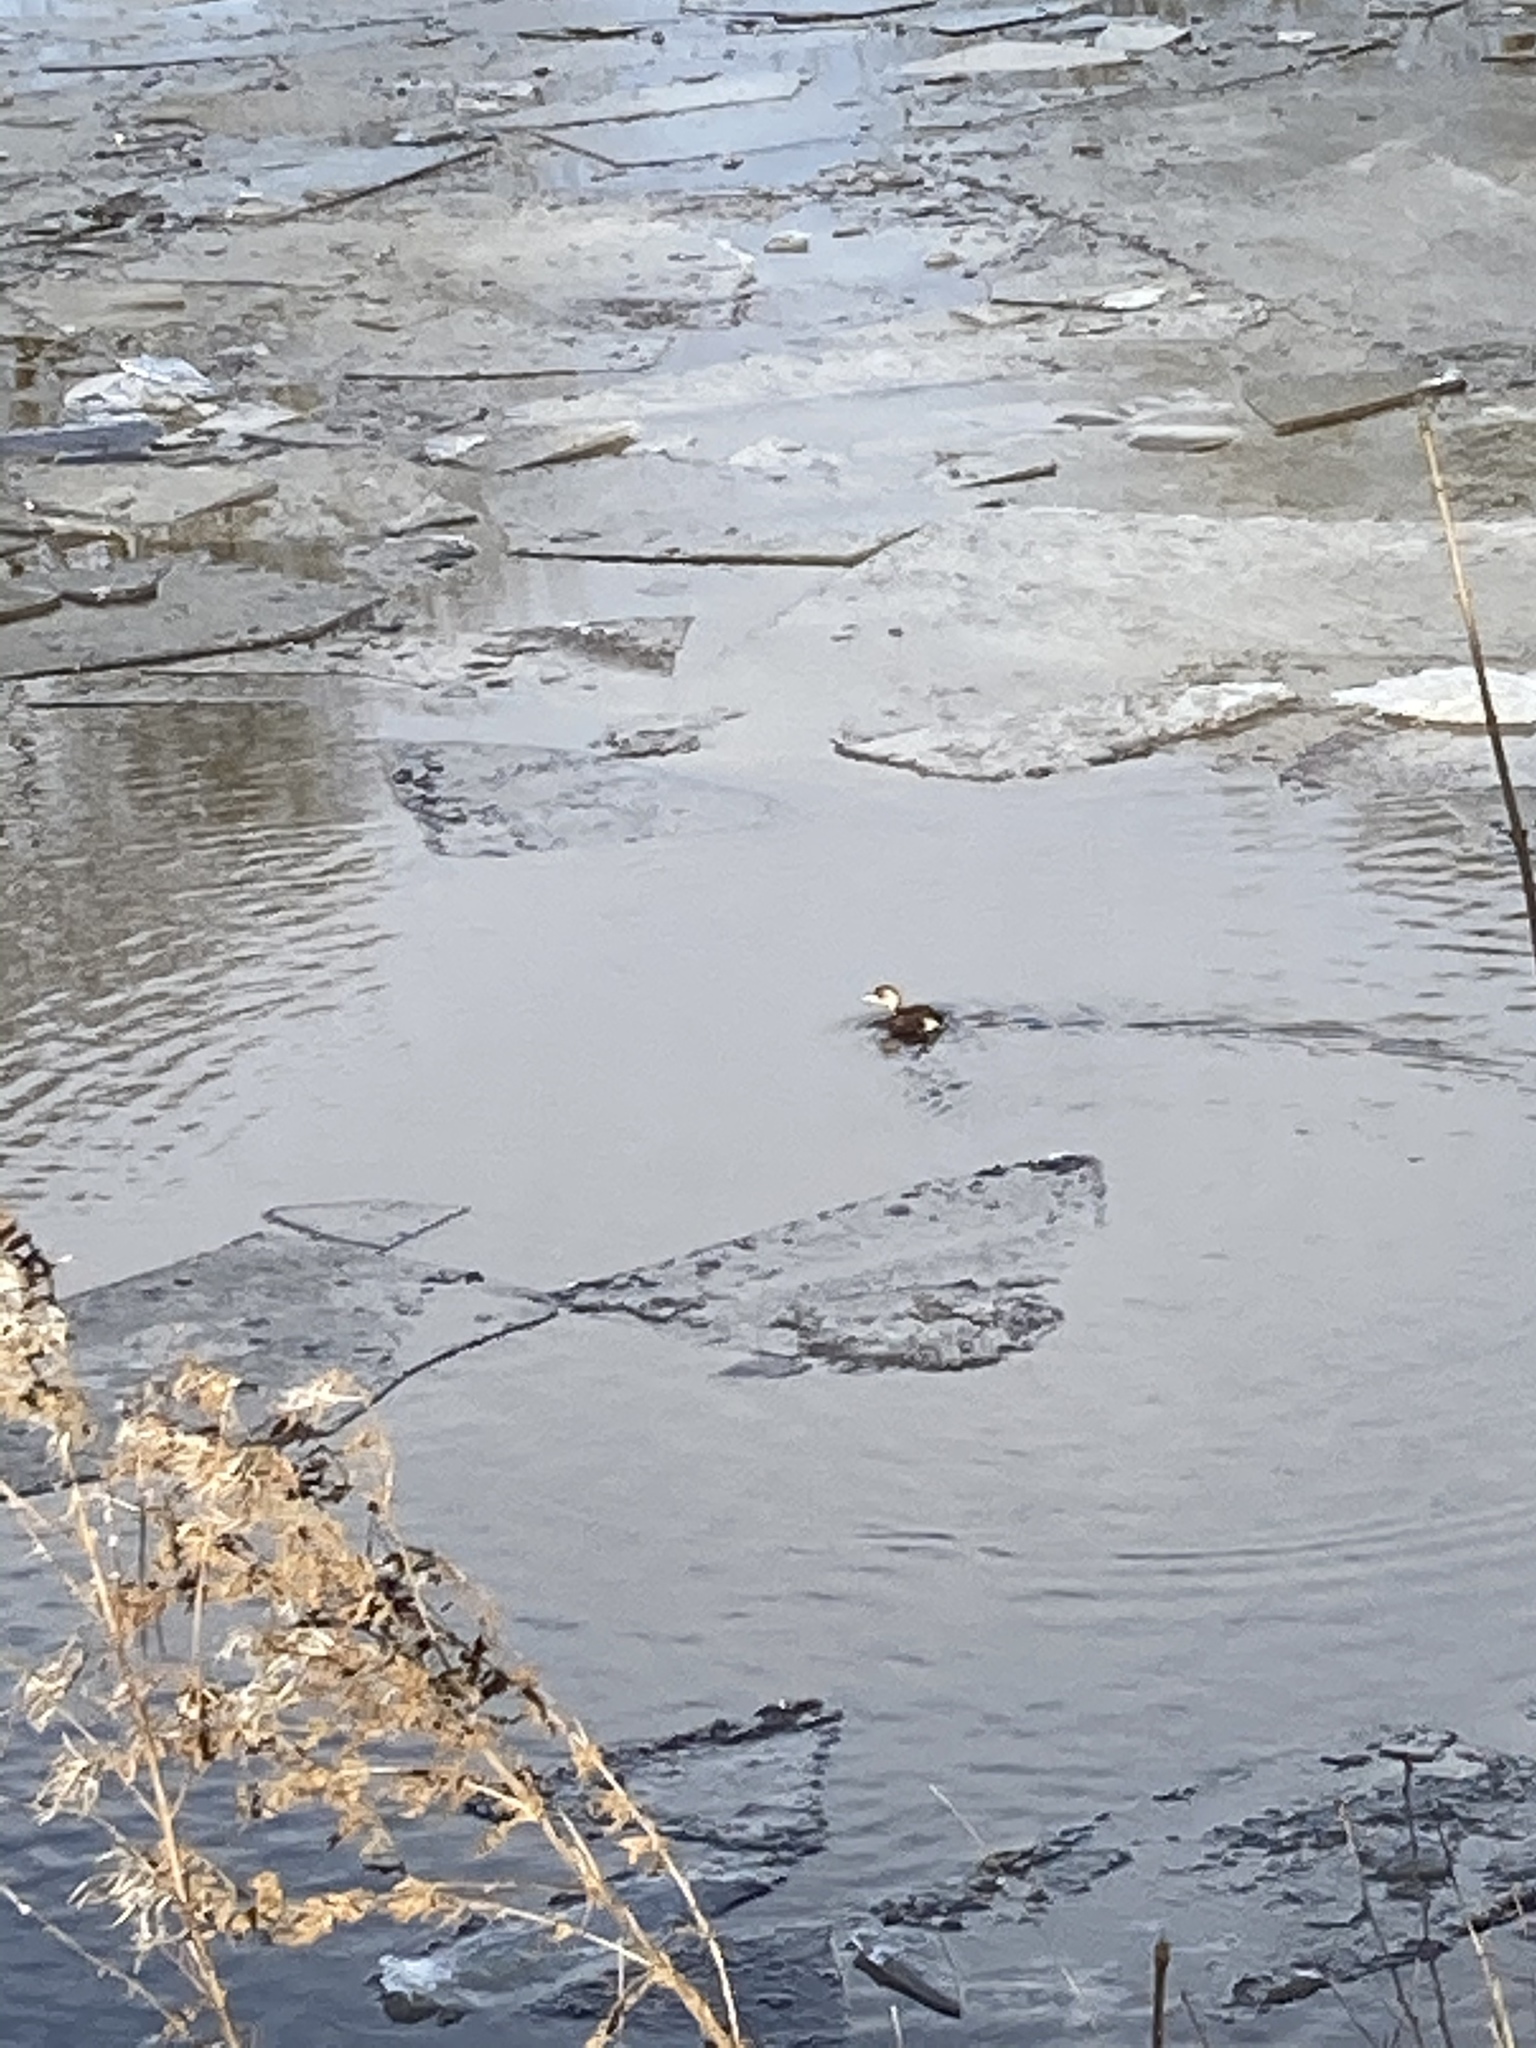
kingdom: Animalia
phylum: Chordata
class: Aves
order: Podicipediformes
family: Podicipedidae
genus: Tachybaptus
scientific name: Tachybaptus ruficollis
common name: Little grebe
